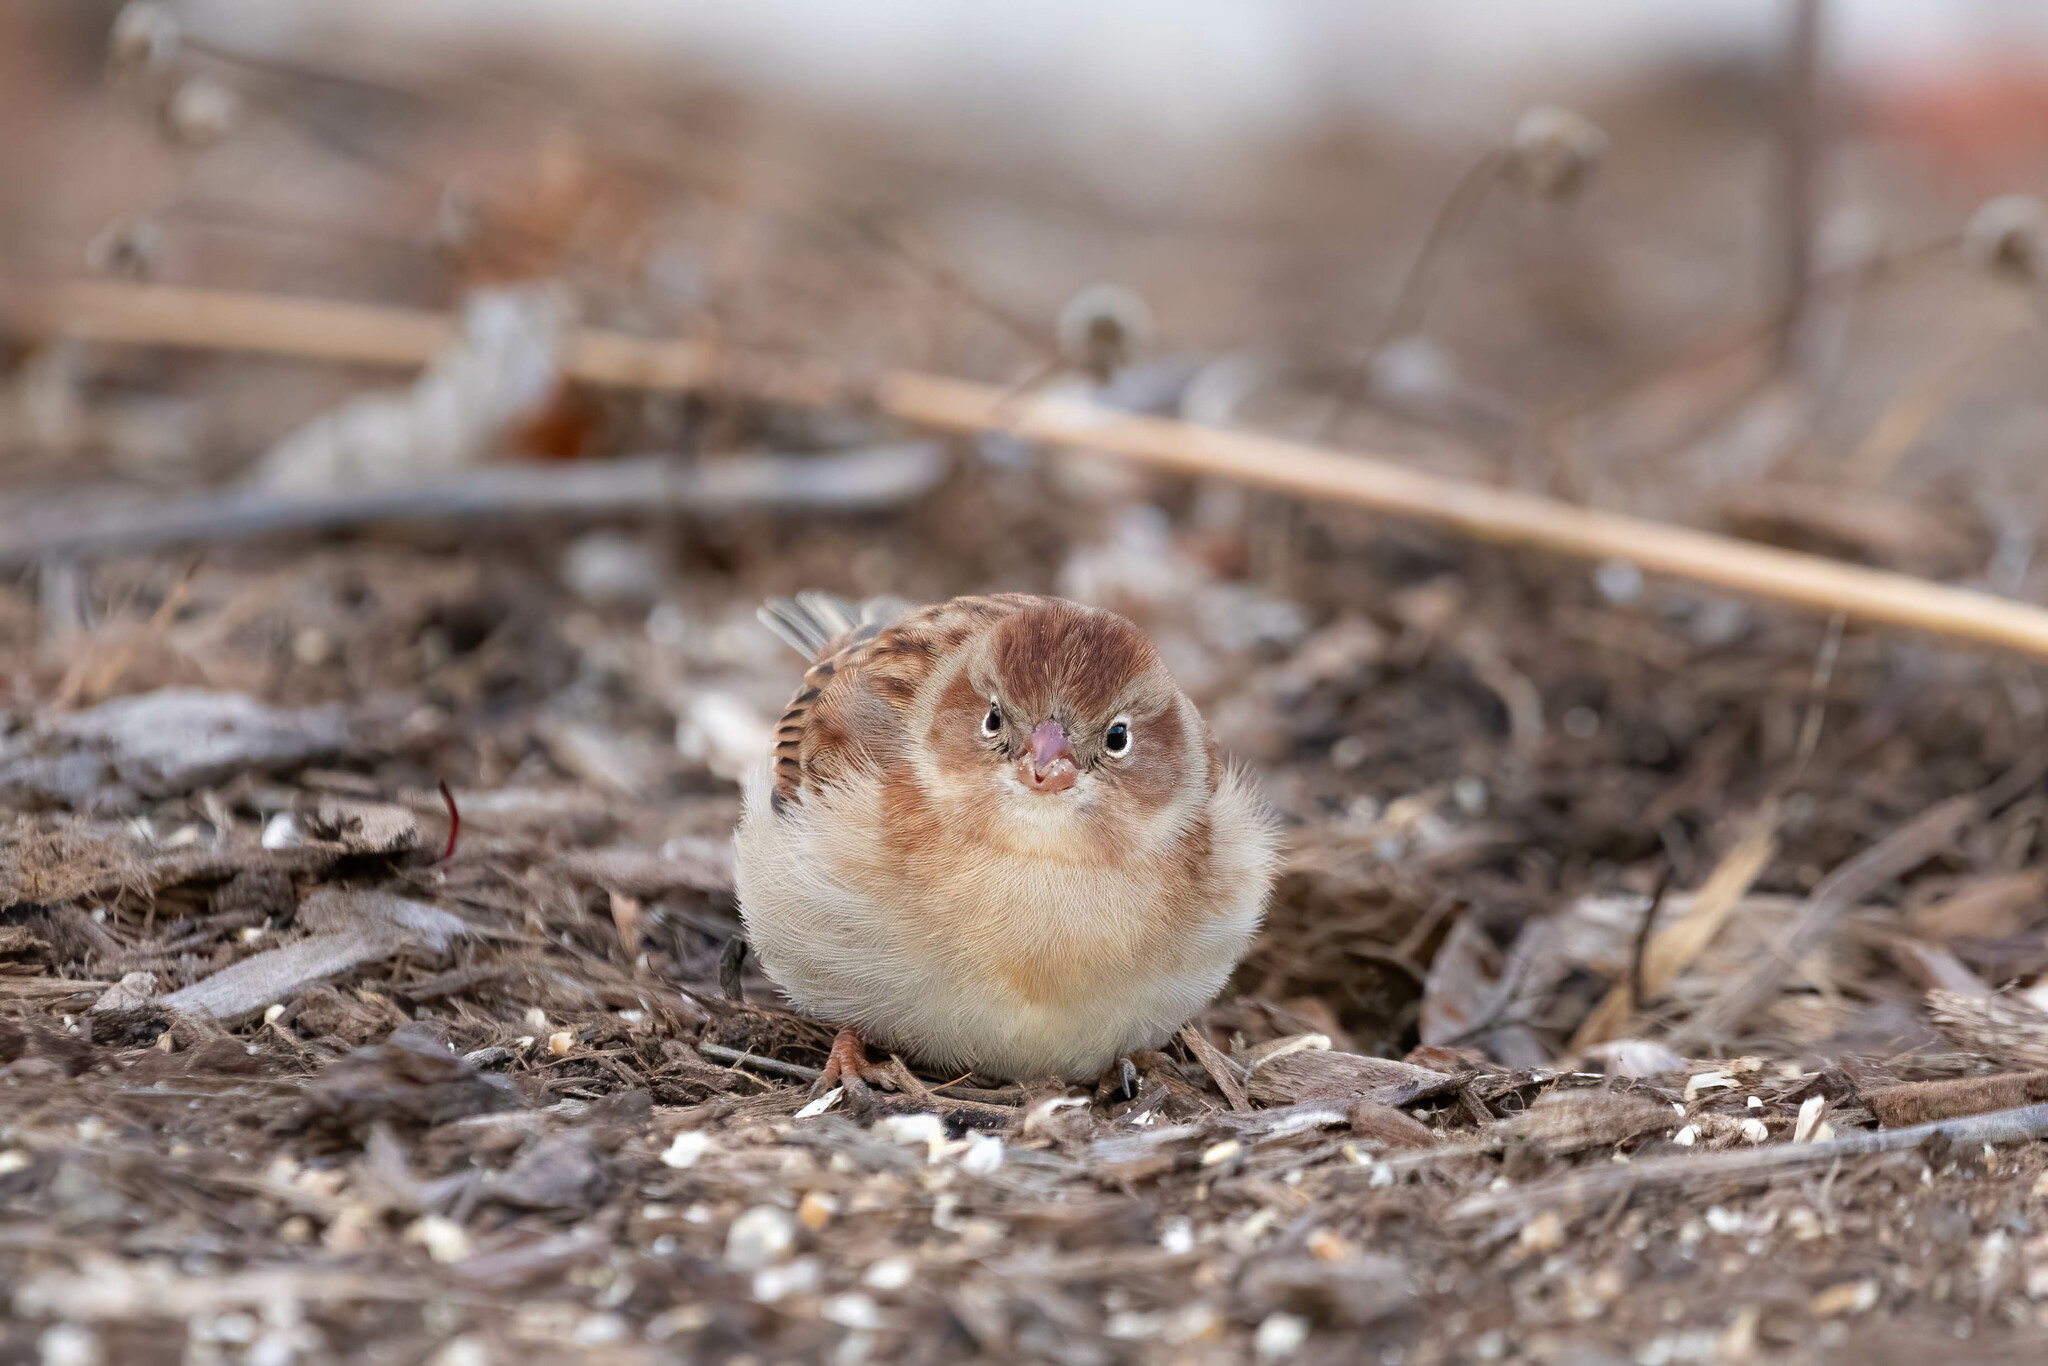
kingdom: Animalia
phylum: Chordata
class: Aves
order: Passeriformes
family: Passerellidae
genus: Spizella
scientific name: Spizella pusilla
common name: Field sparrow
